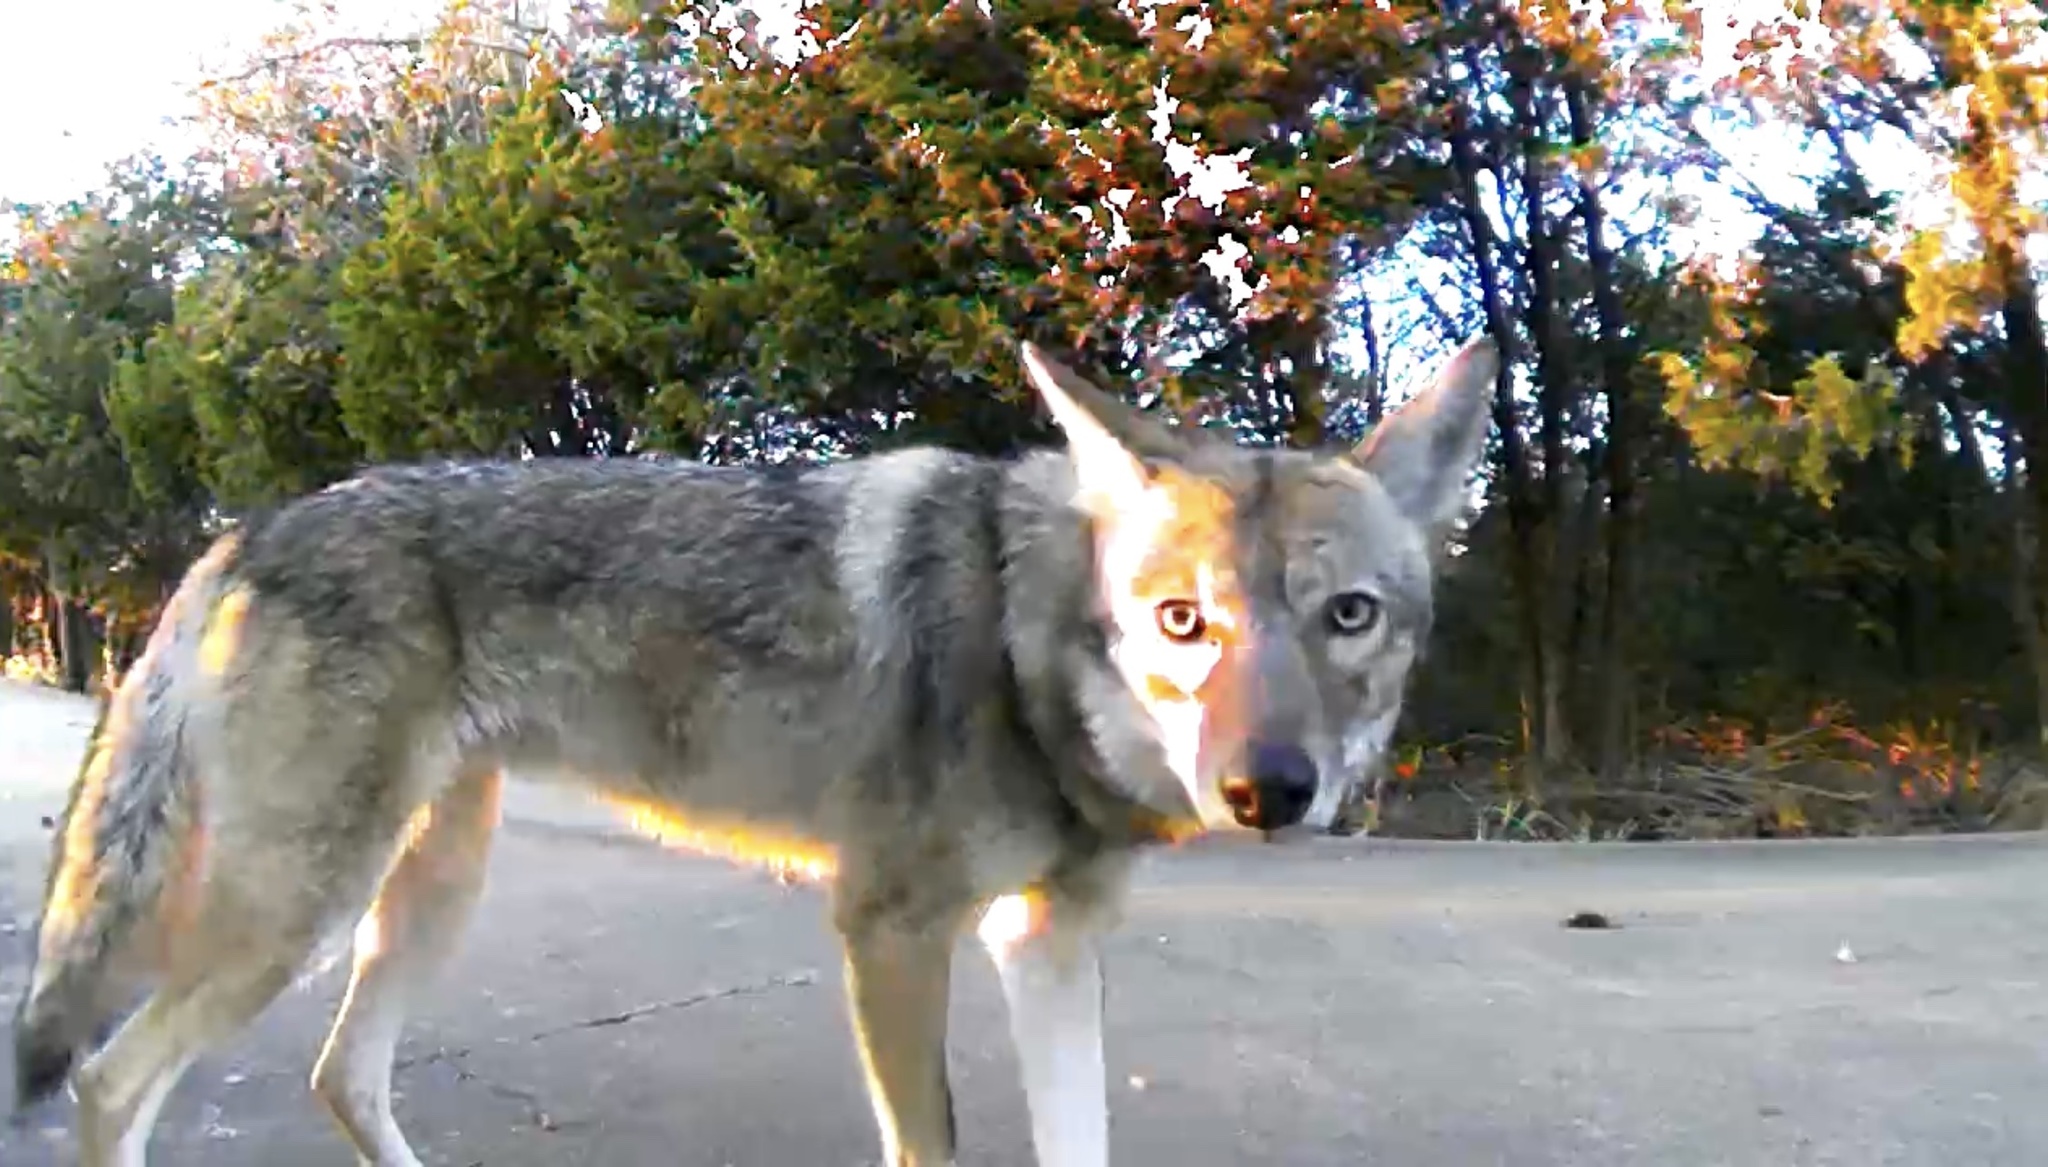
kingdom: Animalia
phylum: Chordata
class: Mammalia
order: Carnivora
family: Canidae
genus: Canis
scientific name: Canis latrans
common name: Coyote
